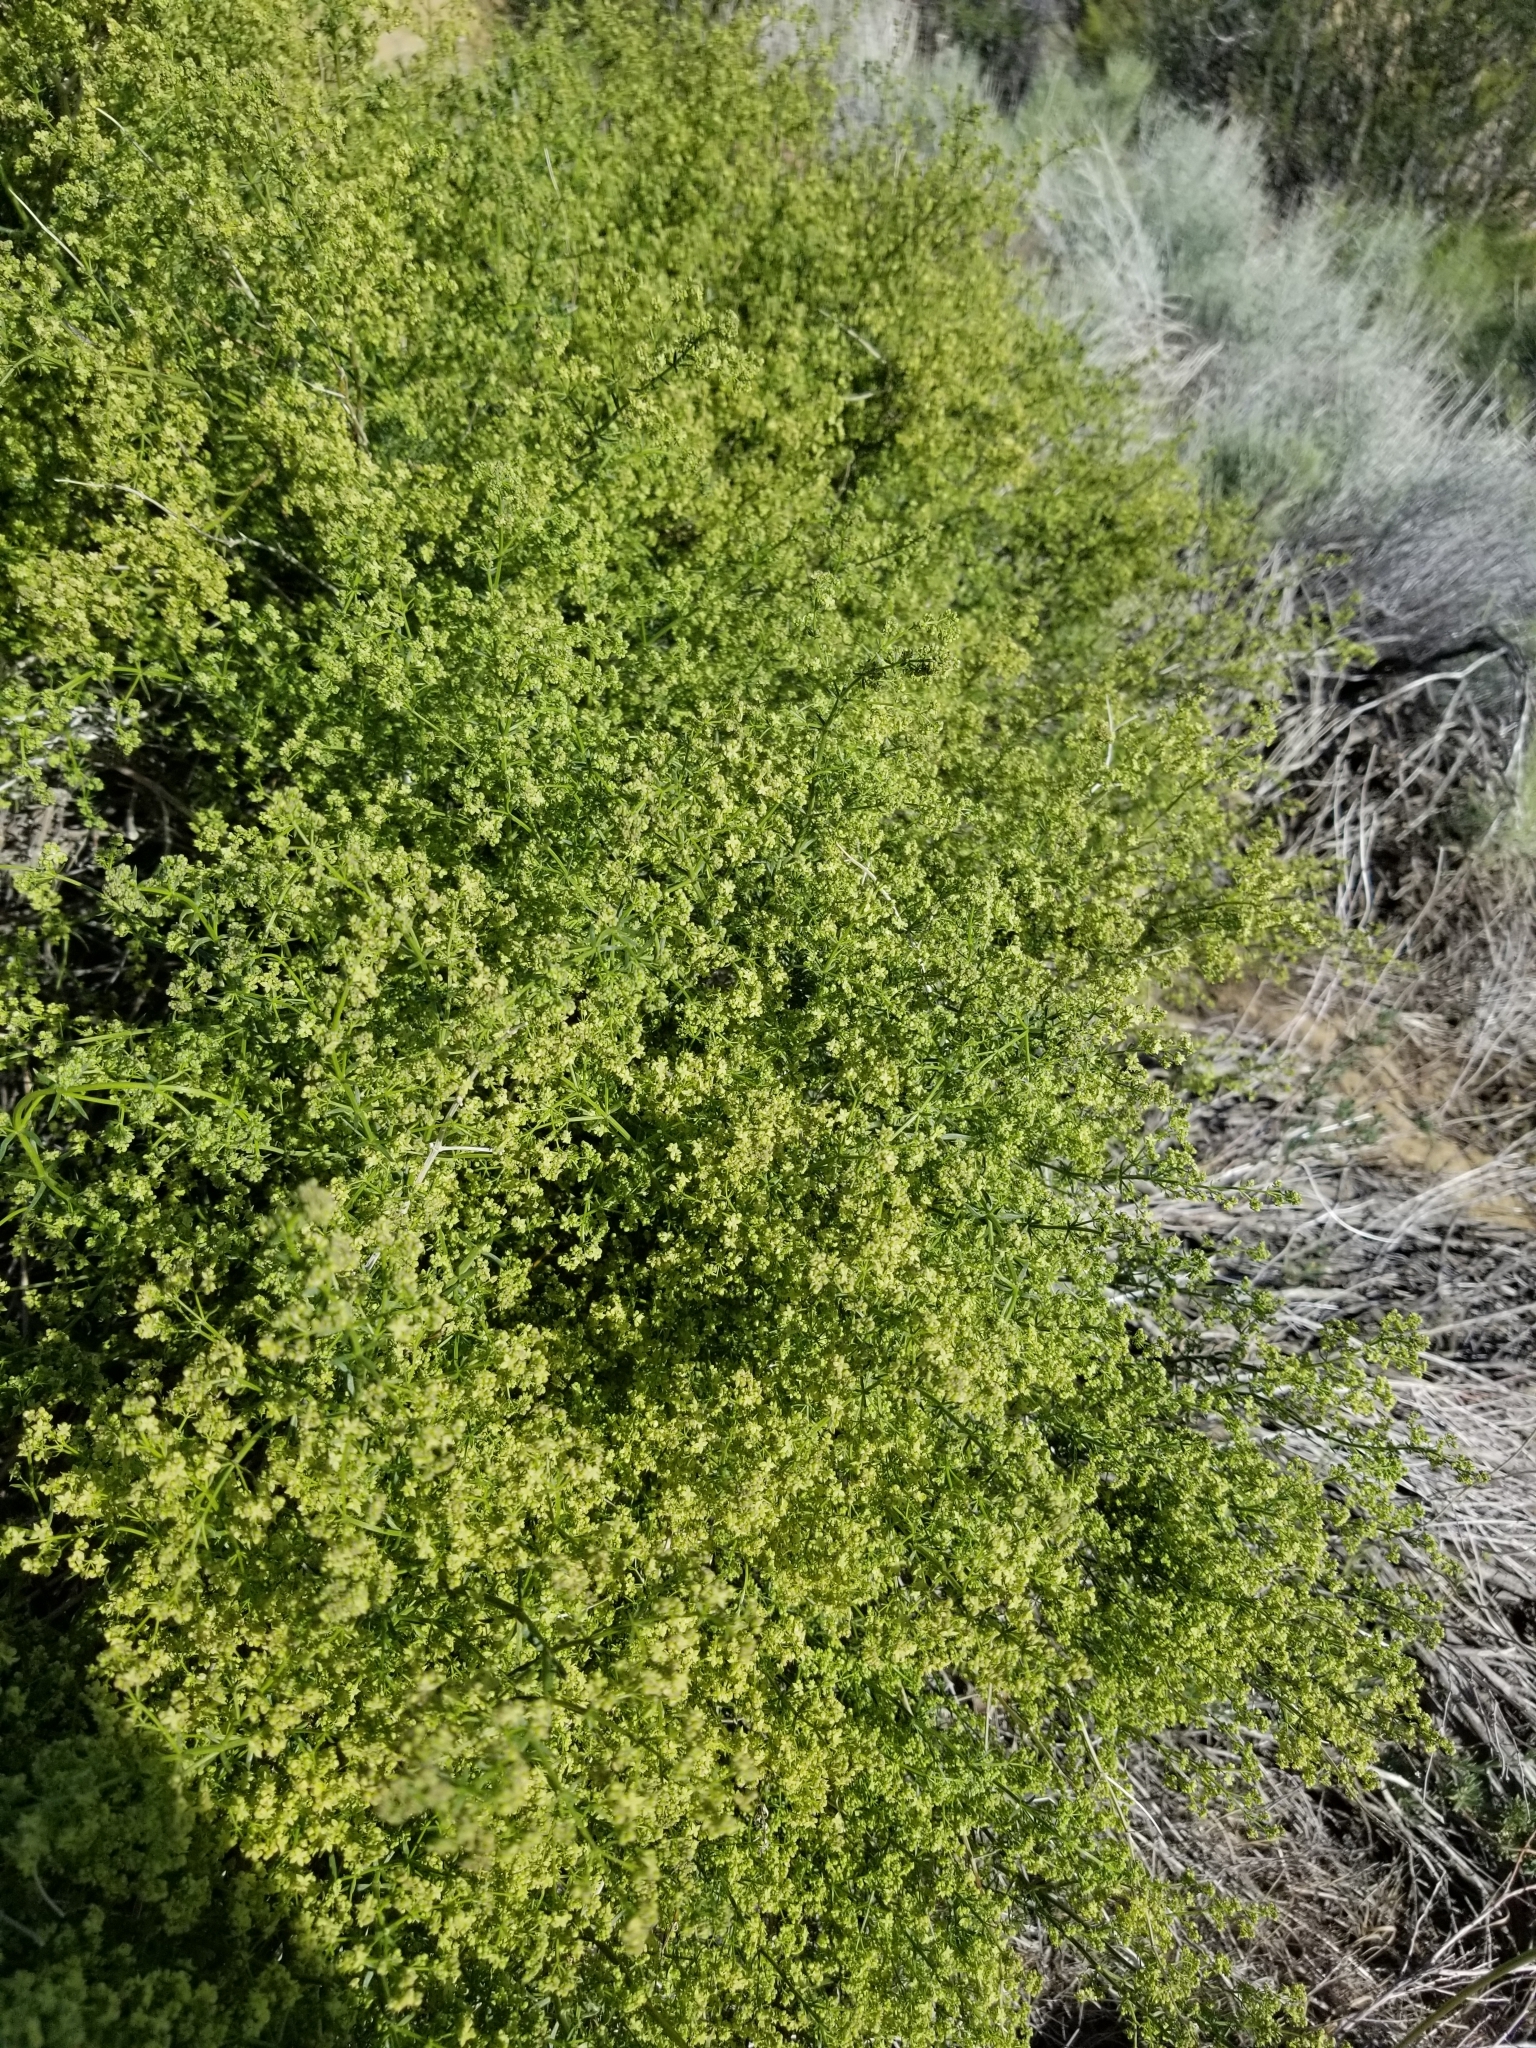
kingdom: Plantae
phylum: Tracheophyta
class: Magnoliopsida
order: Gentianales
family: Rubiaceae
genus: Galium
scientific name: Galium angustifolium
